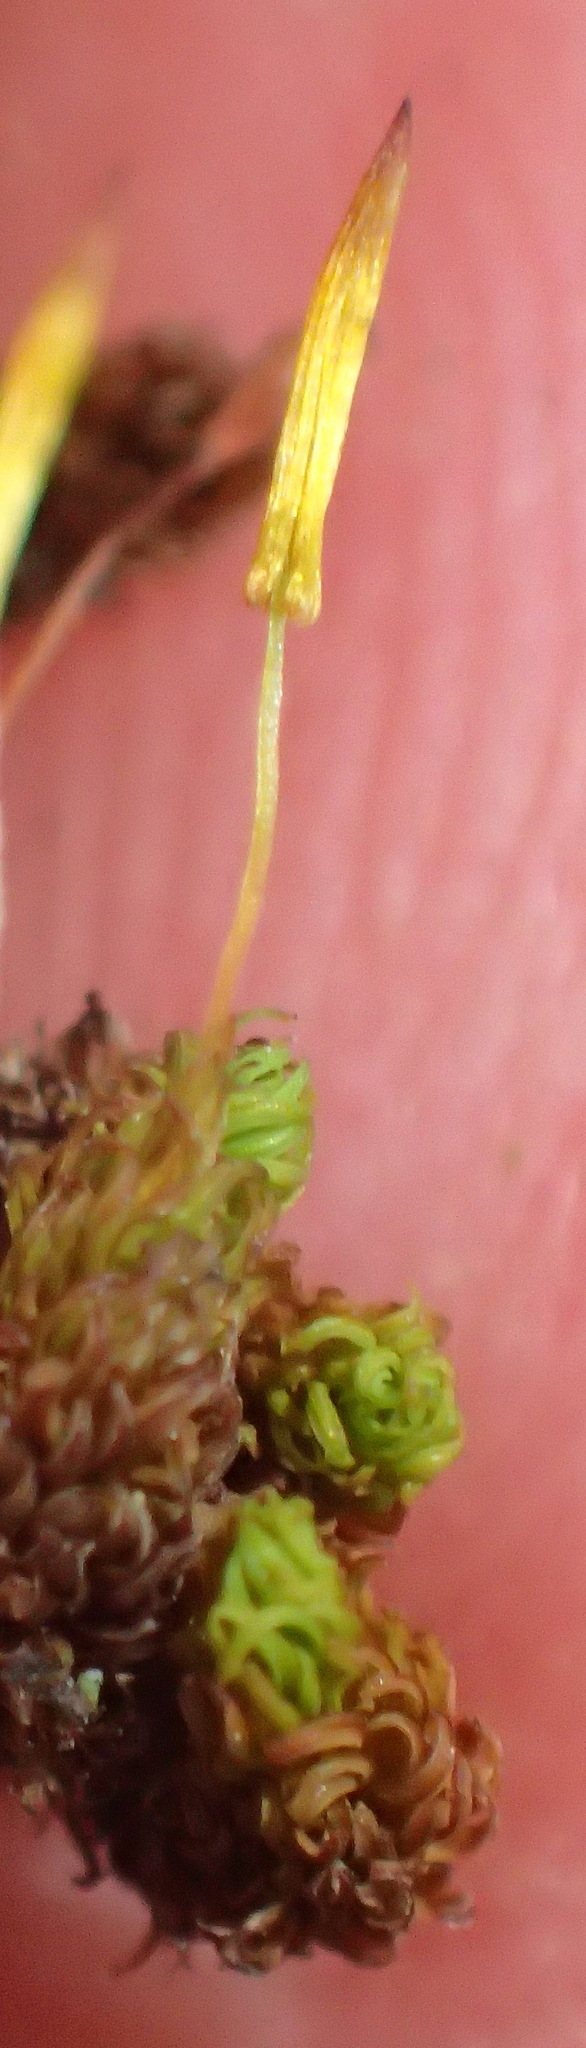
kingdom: Plantae
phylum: Bryophyta
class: Bryopsida
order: Orthotrichales
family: Orthotrichaceae
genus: Macromitrium
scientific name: Macromitrium viticulosum
